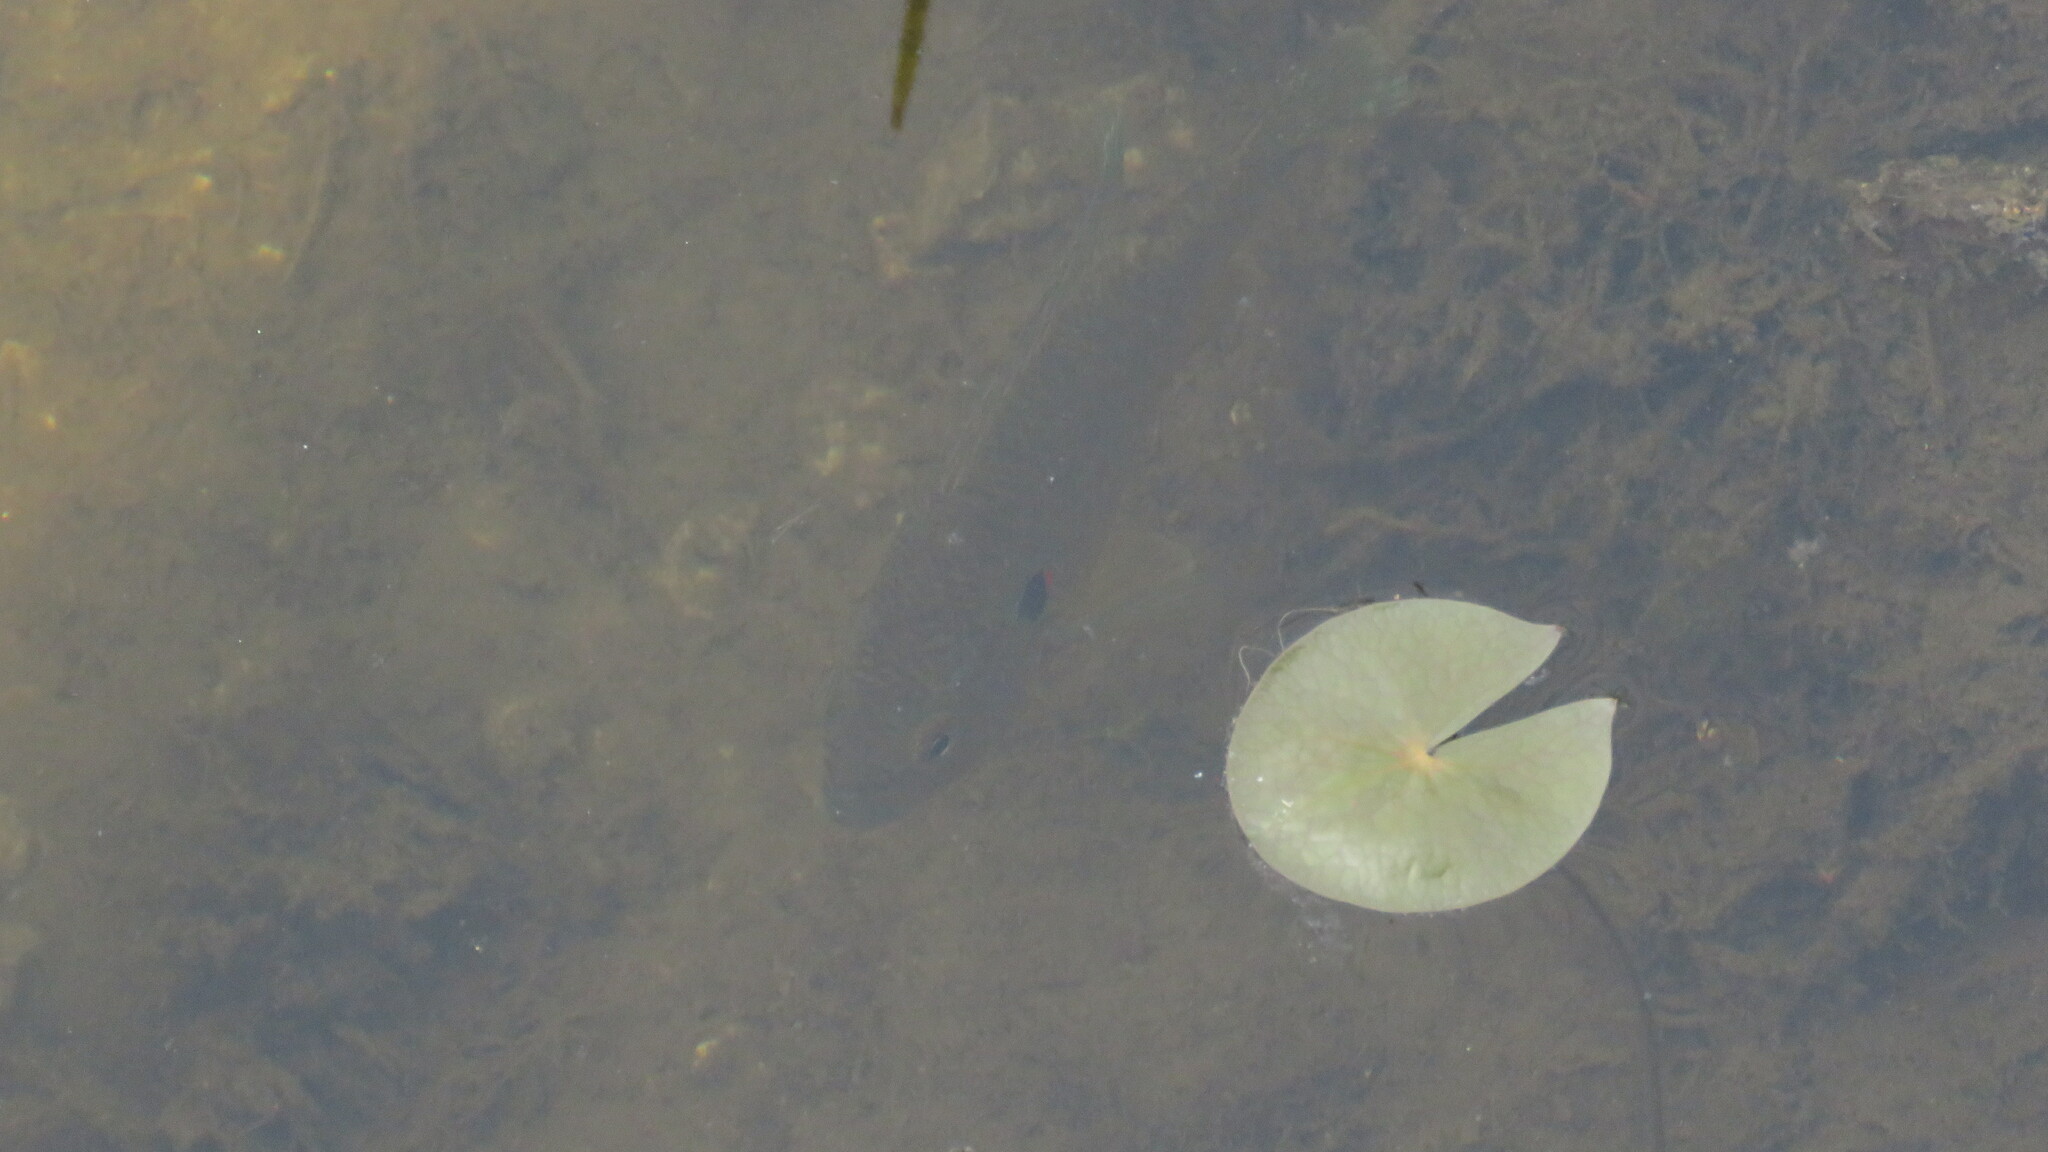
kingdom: Animalia
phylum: Chordata
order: Perciformes
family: Centrarchidae
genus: Lepomis
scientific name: Lepomis gibbosus
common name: Pumpkinseed
